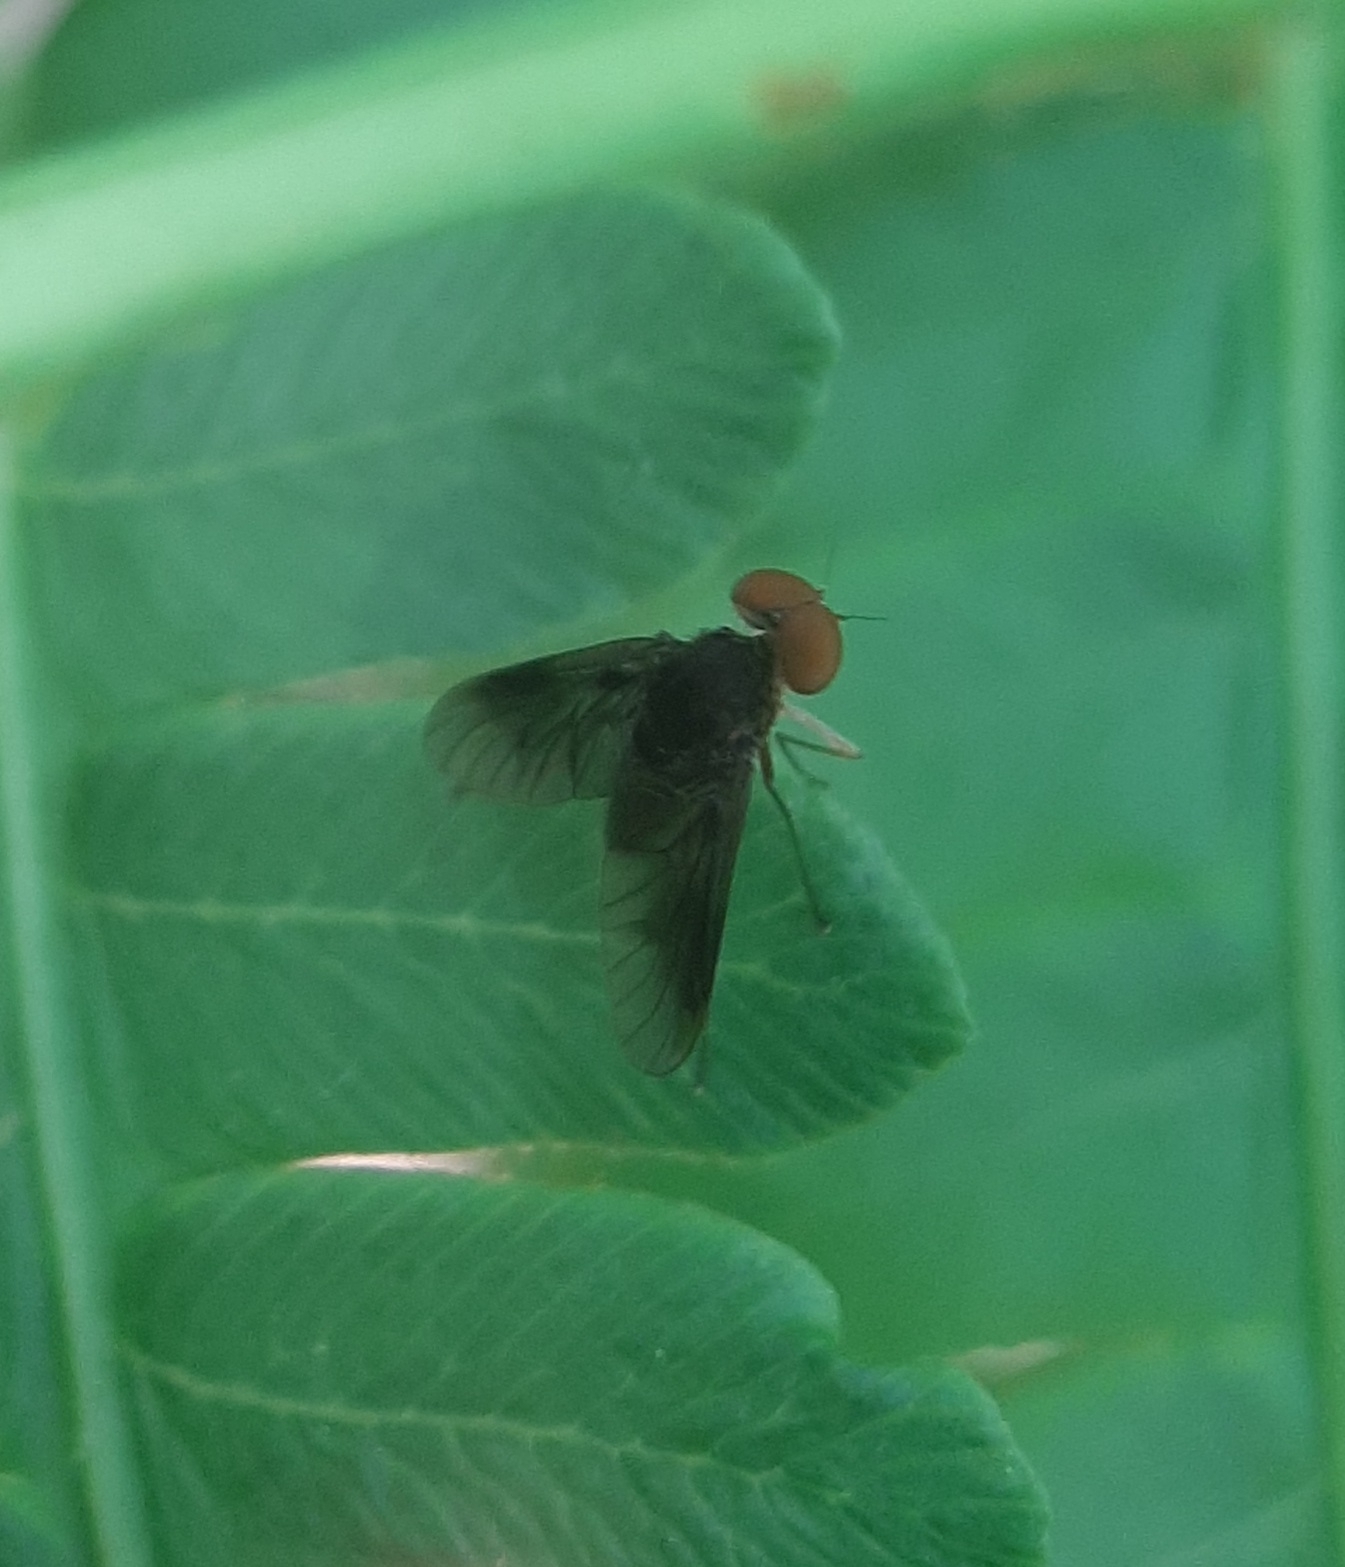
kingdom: Animalia
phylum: Arthropoda
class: Insecta
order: Diptera
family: Rhagionidae
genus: Chrysopilus
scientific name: Chrysopilus quadratus
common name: Quadrate snipe fly
